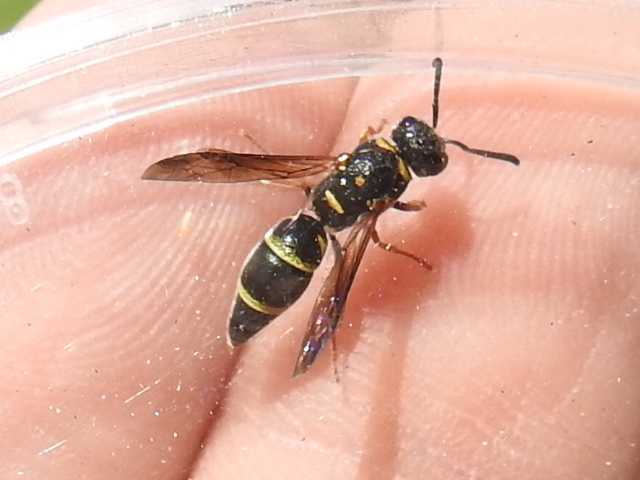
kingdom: Animalia
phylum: Arthropoda
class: Insecta
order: Hymenoptera
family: Eumenidae
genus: Parancistrocerus
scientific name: Parancistrocerus fulvipes
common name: Potter wasp
